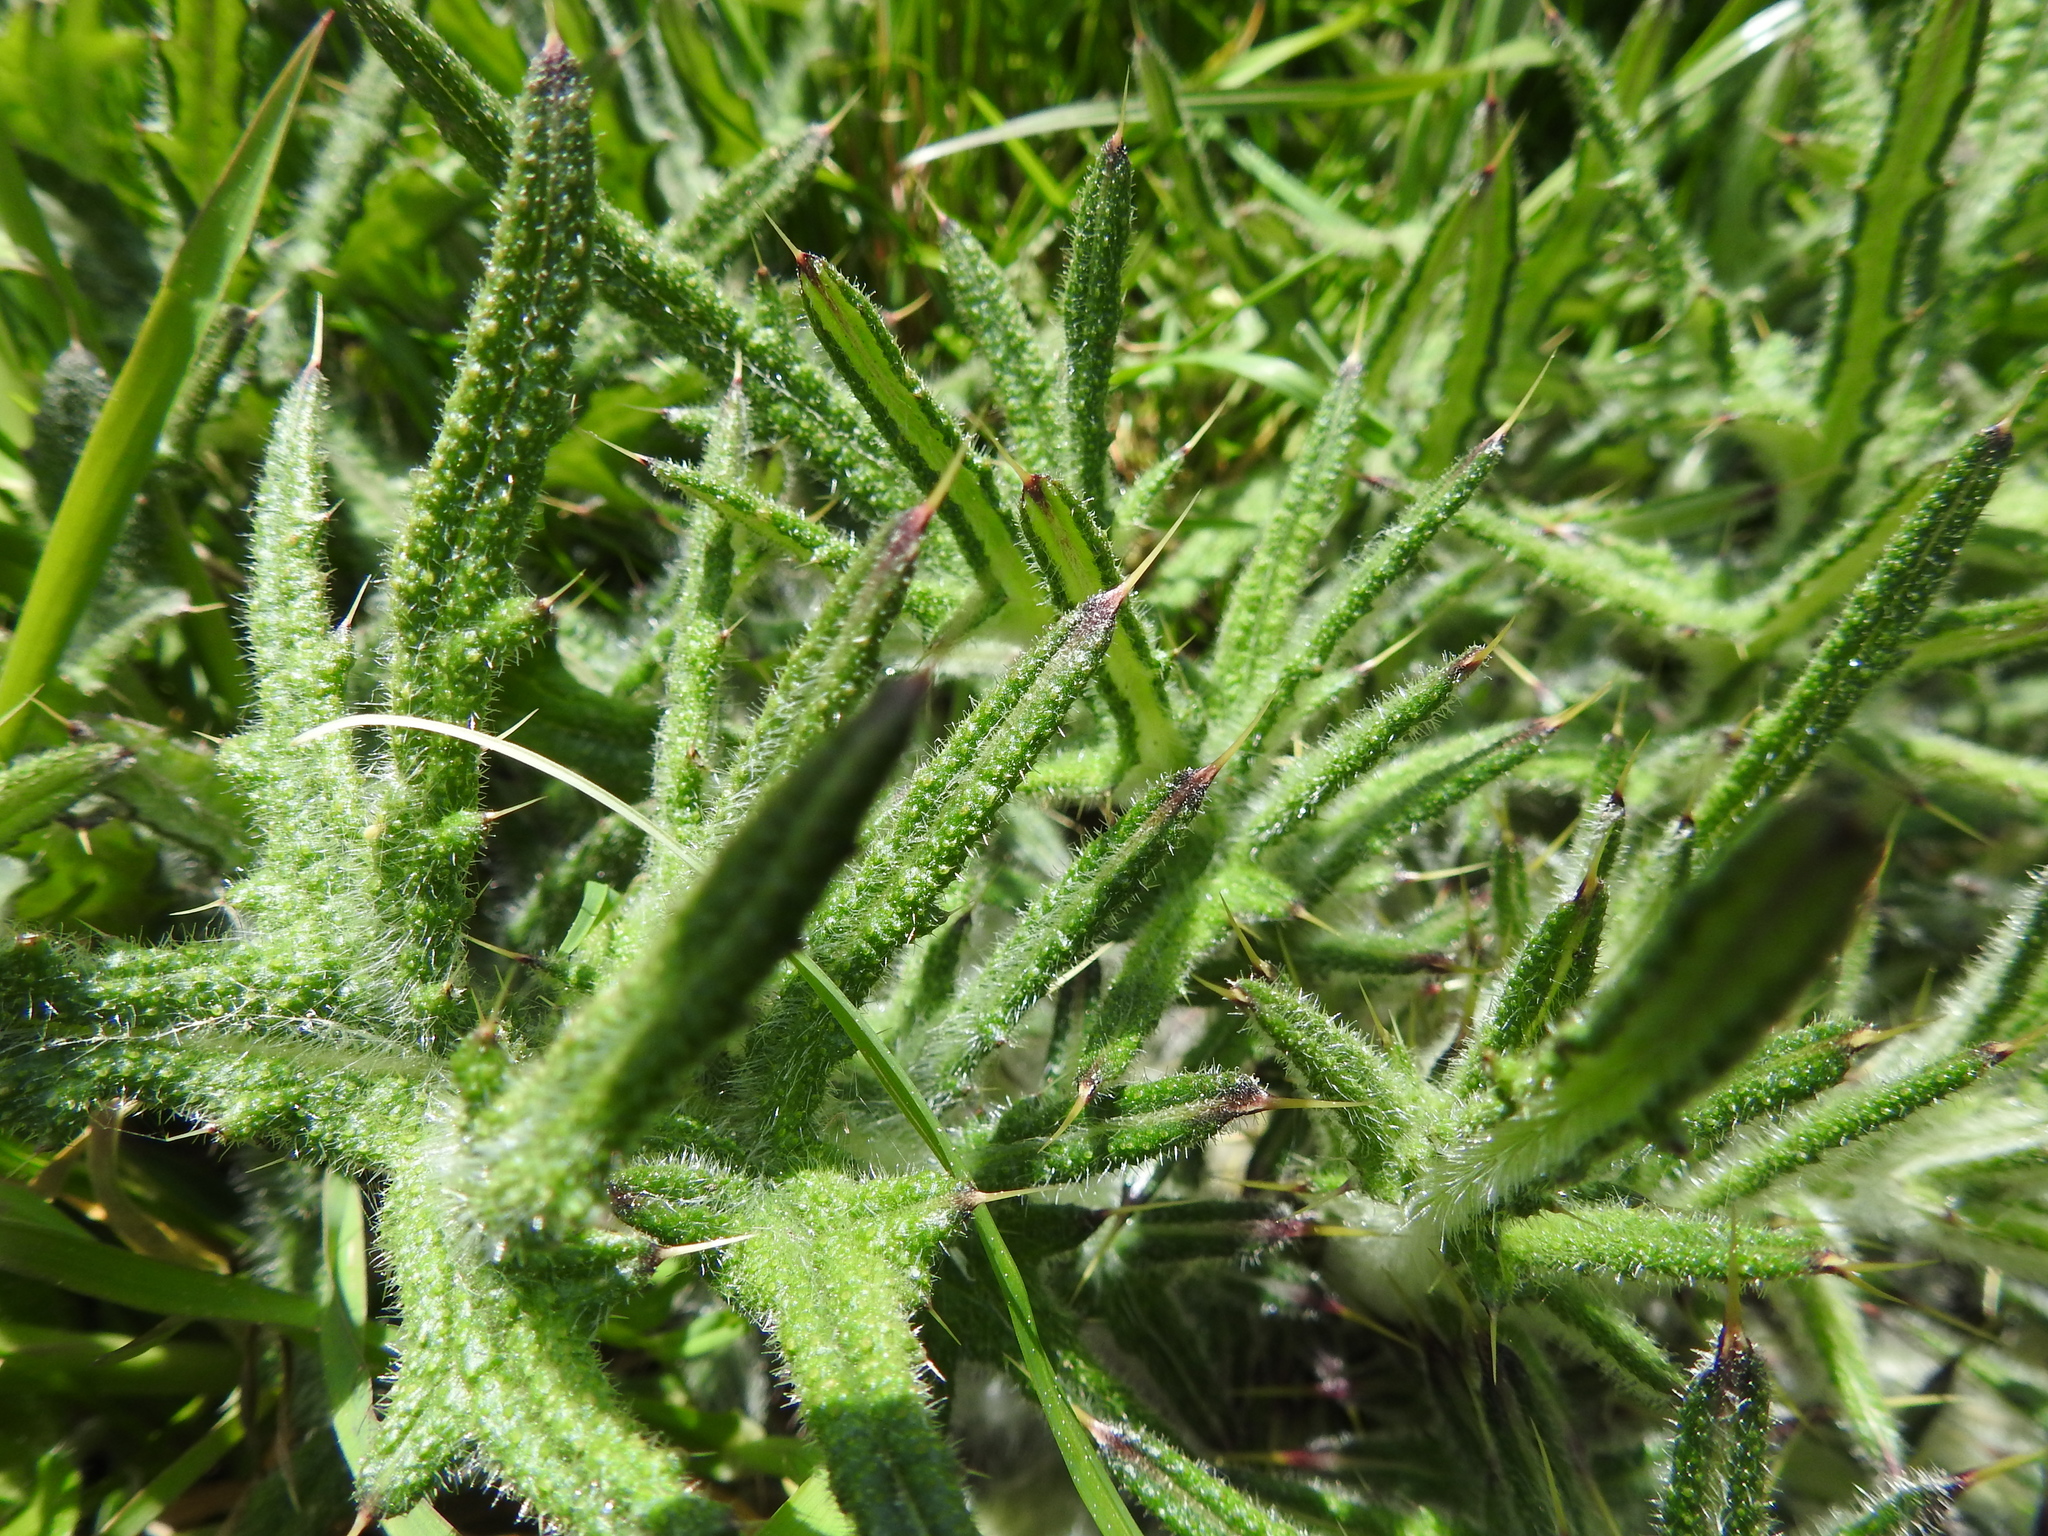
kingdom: Plantae
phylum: Tracheophyta
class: Magnoliopsida
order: Asterales
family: Asteraceae
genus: Cirsium
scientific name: Cirsium vulgare
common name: Bull thistle
